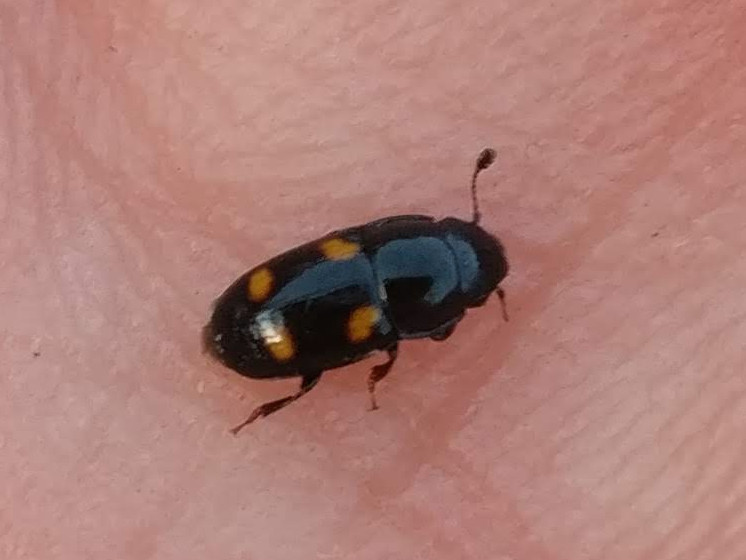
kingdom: Animalia
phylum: Arthropoda
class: Insecta
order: Coleoptera
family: Nitidulidae
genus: Glischrochilus
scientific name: Glischrochilus hortensis
